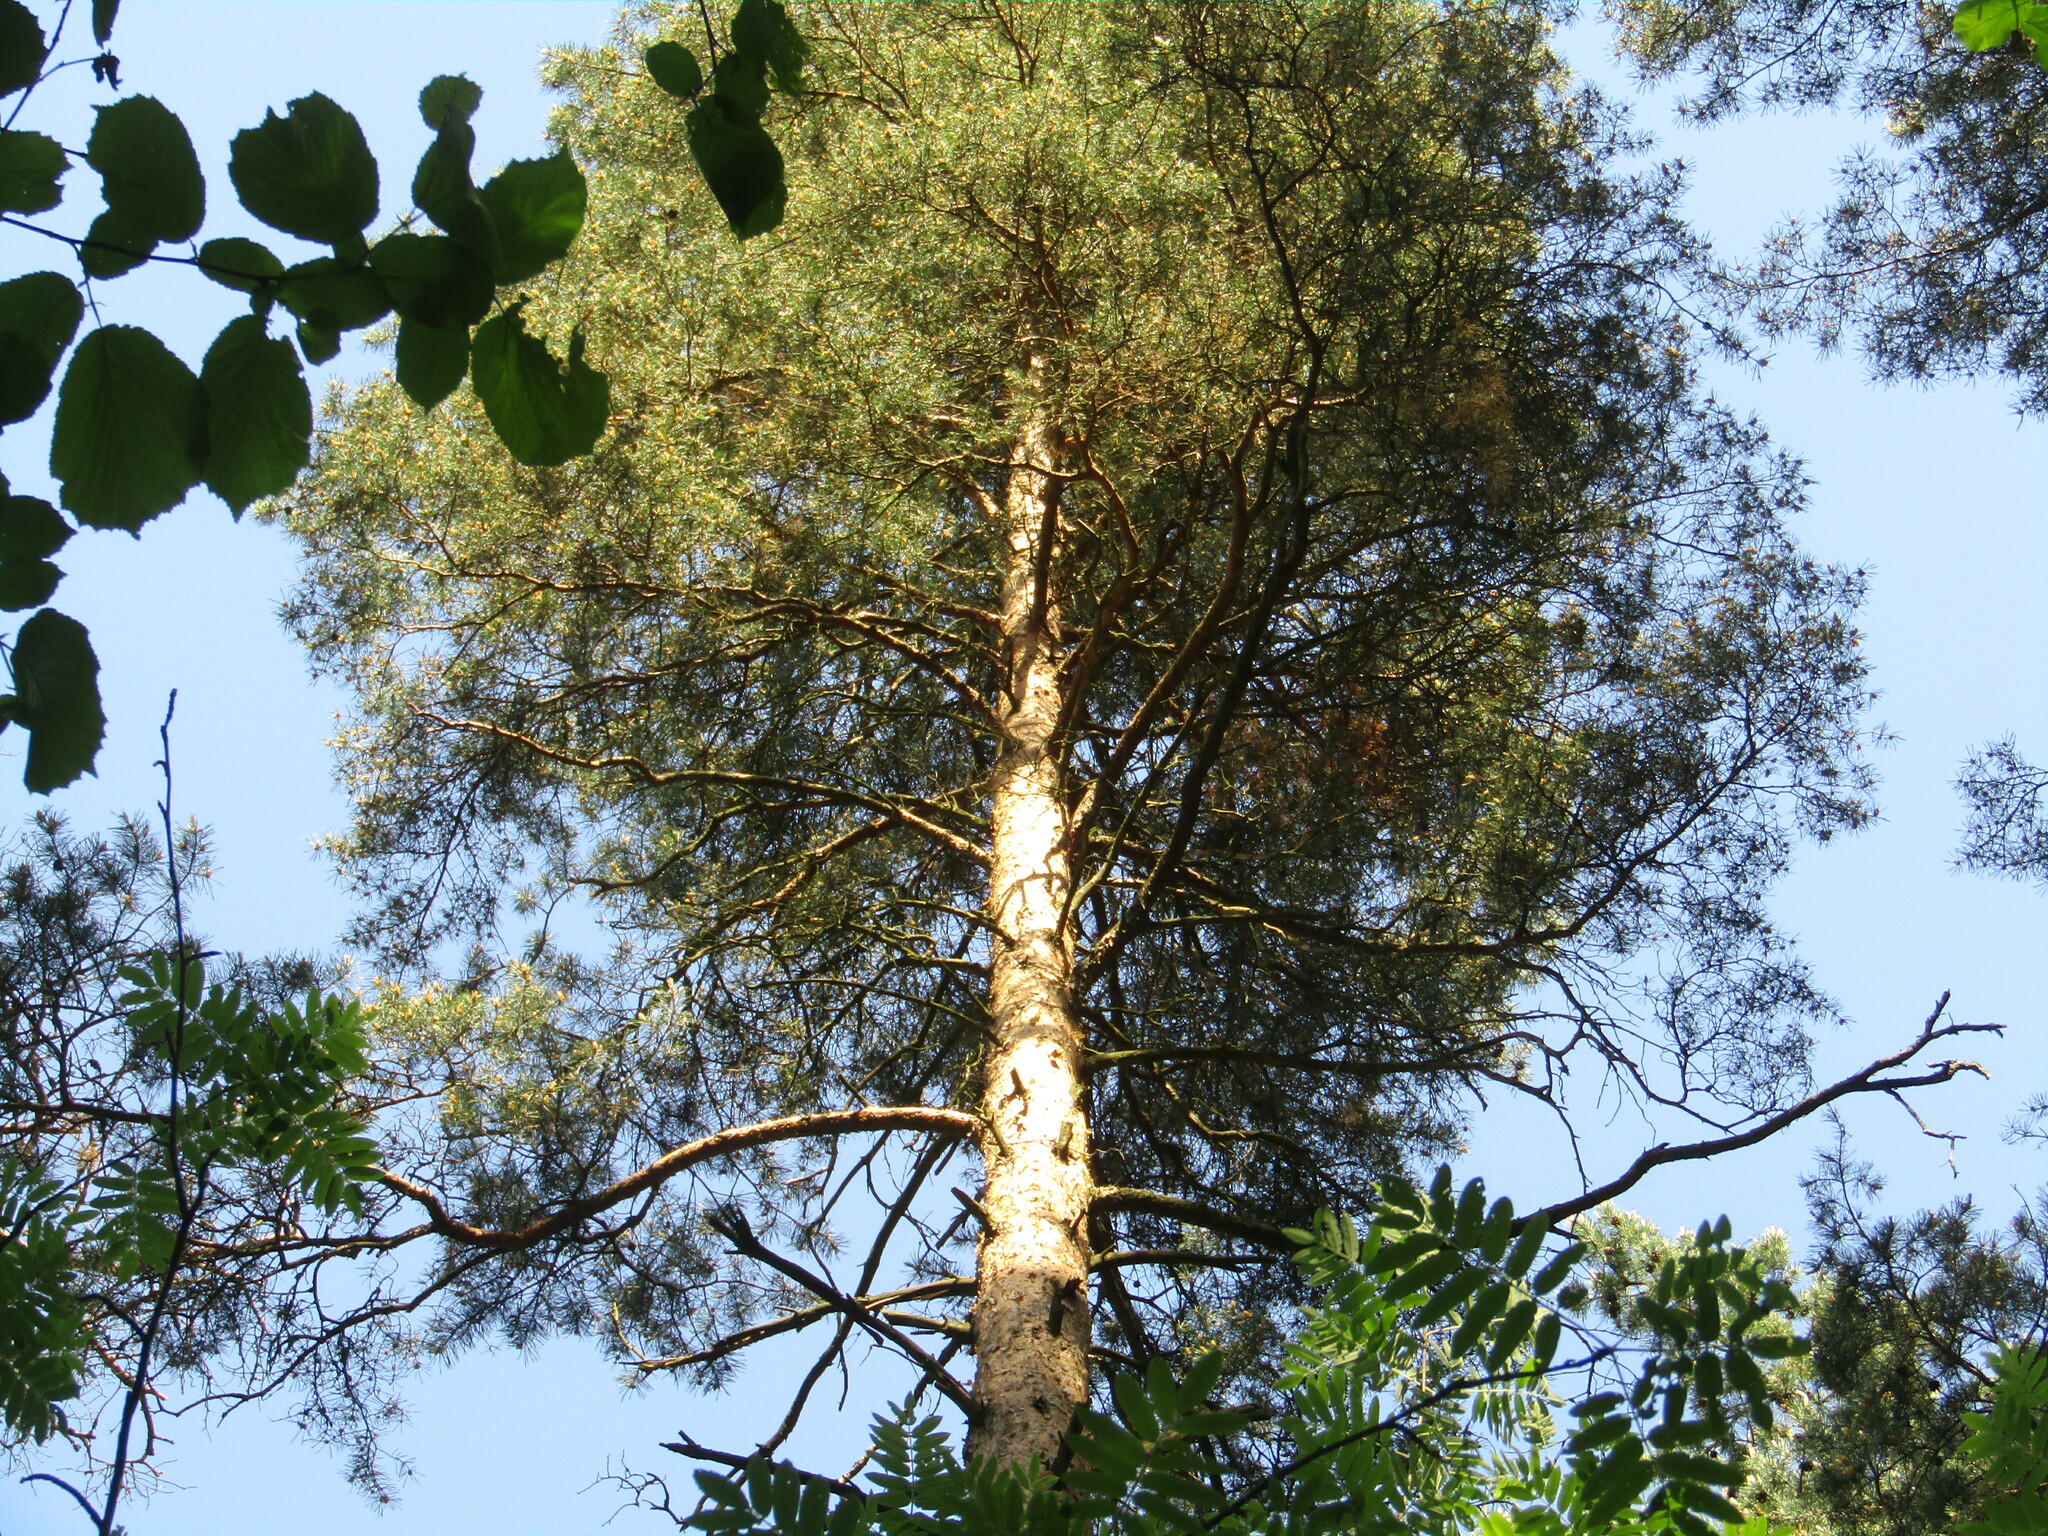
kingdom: Plantae
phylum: Tracheophyta
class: Pinopsida
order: Pinales
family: Pinaceae
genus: Pinus
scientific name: Pinus sylvestris
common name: Scots pine
